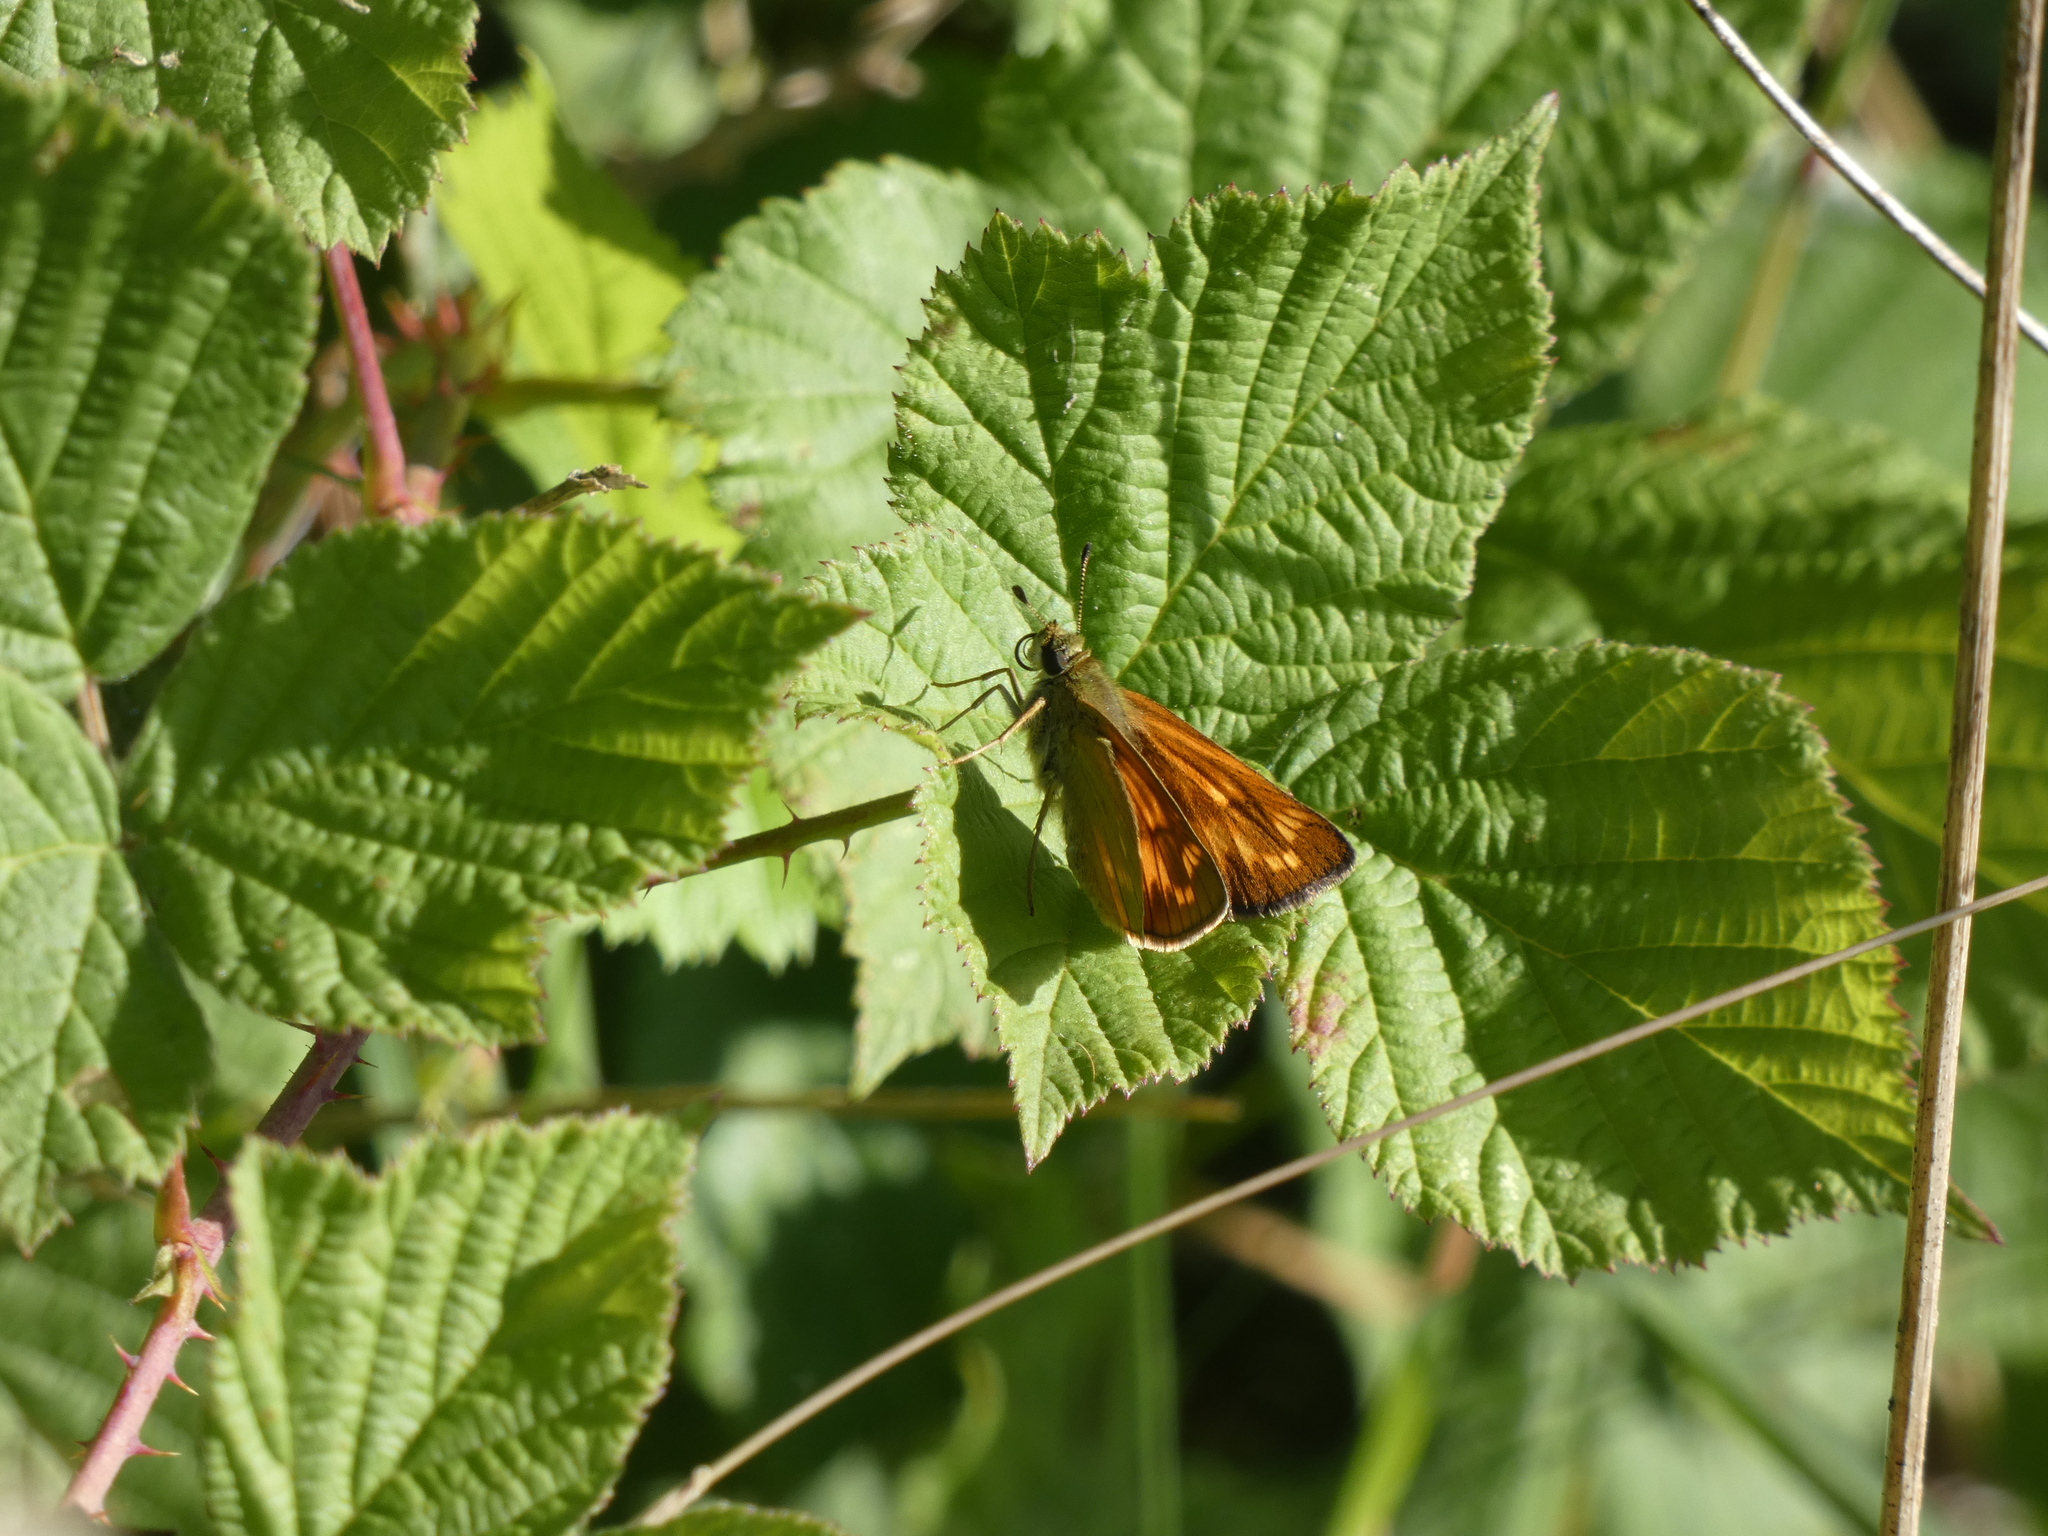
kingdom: Animalia
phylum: Arthropoda
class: Insecta
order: Lepidoptera
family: Hesperiidae
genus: Ochlodes
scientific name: Ochlodes venata
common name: Large skipper
